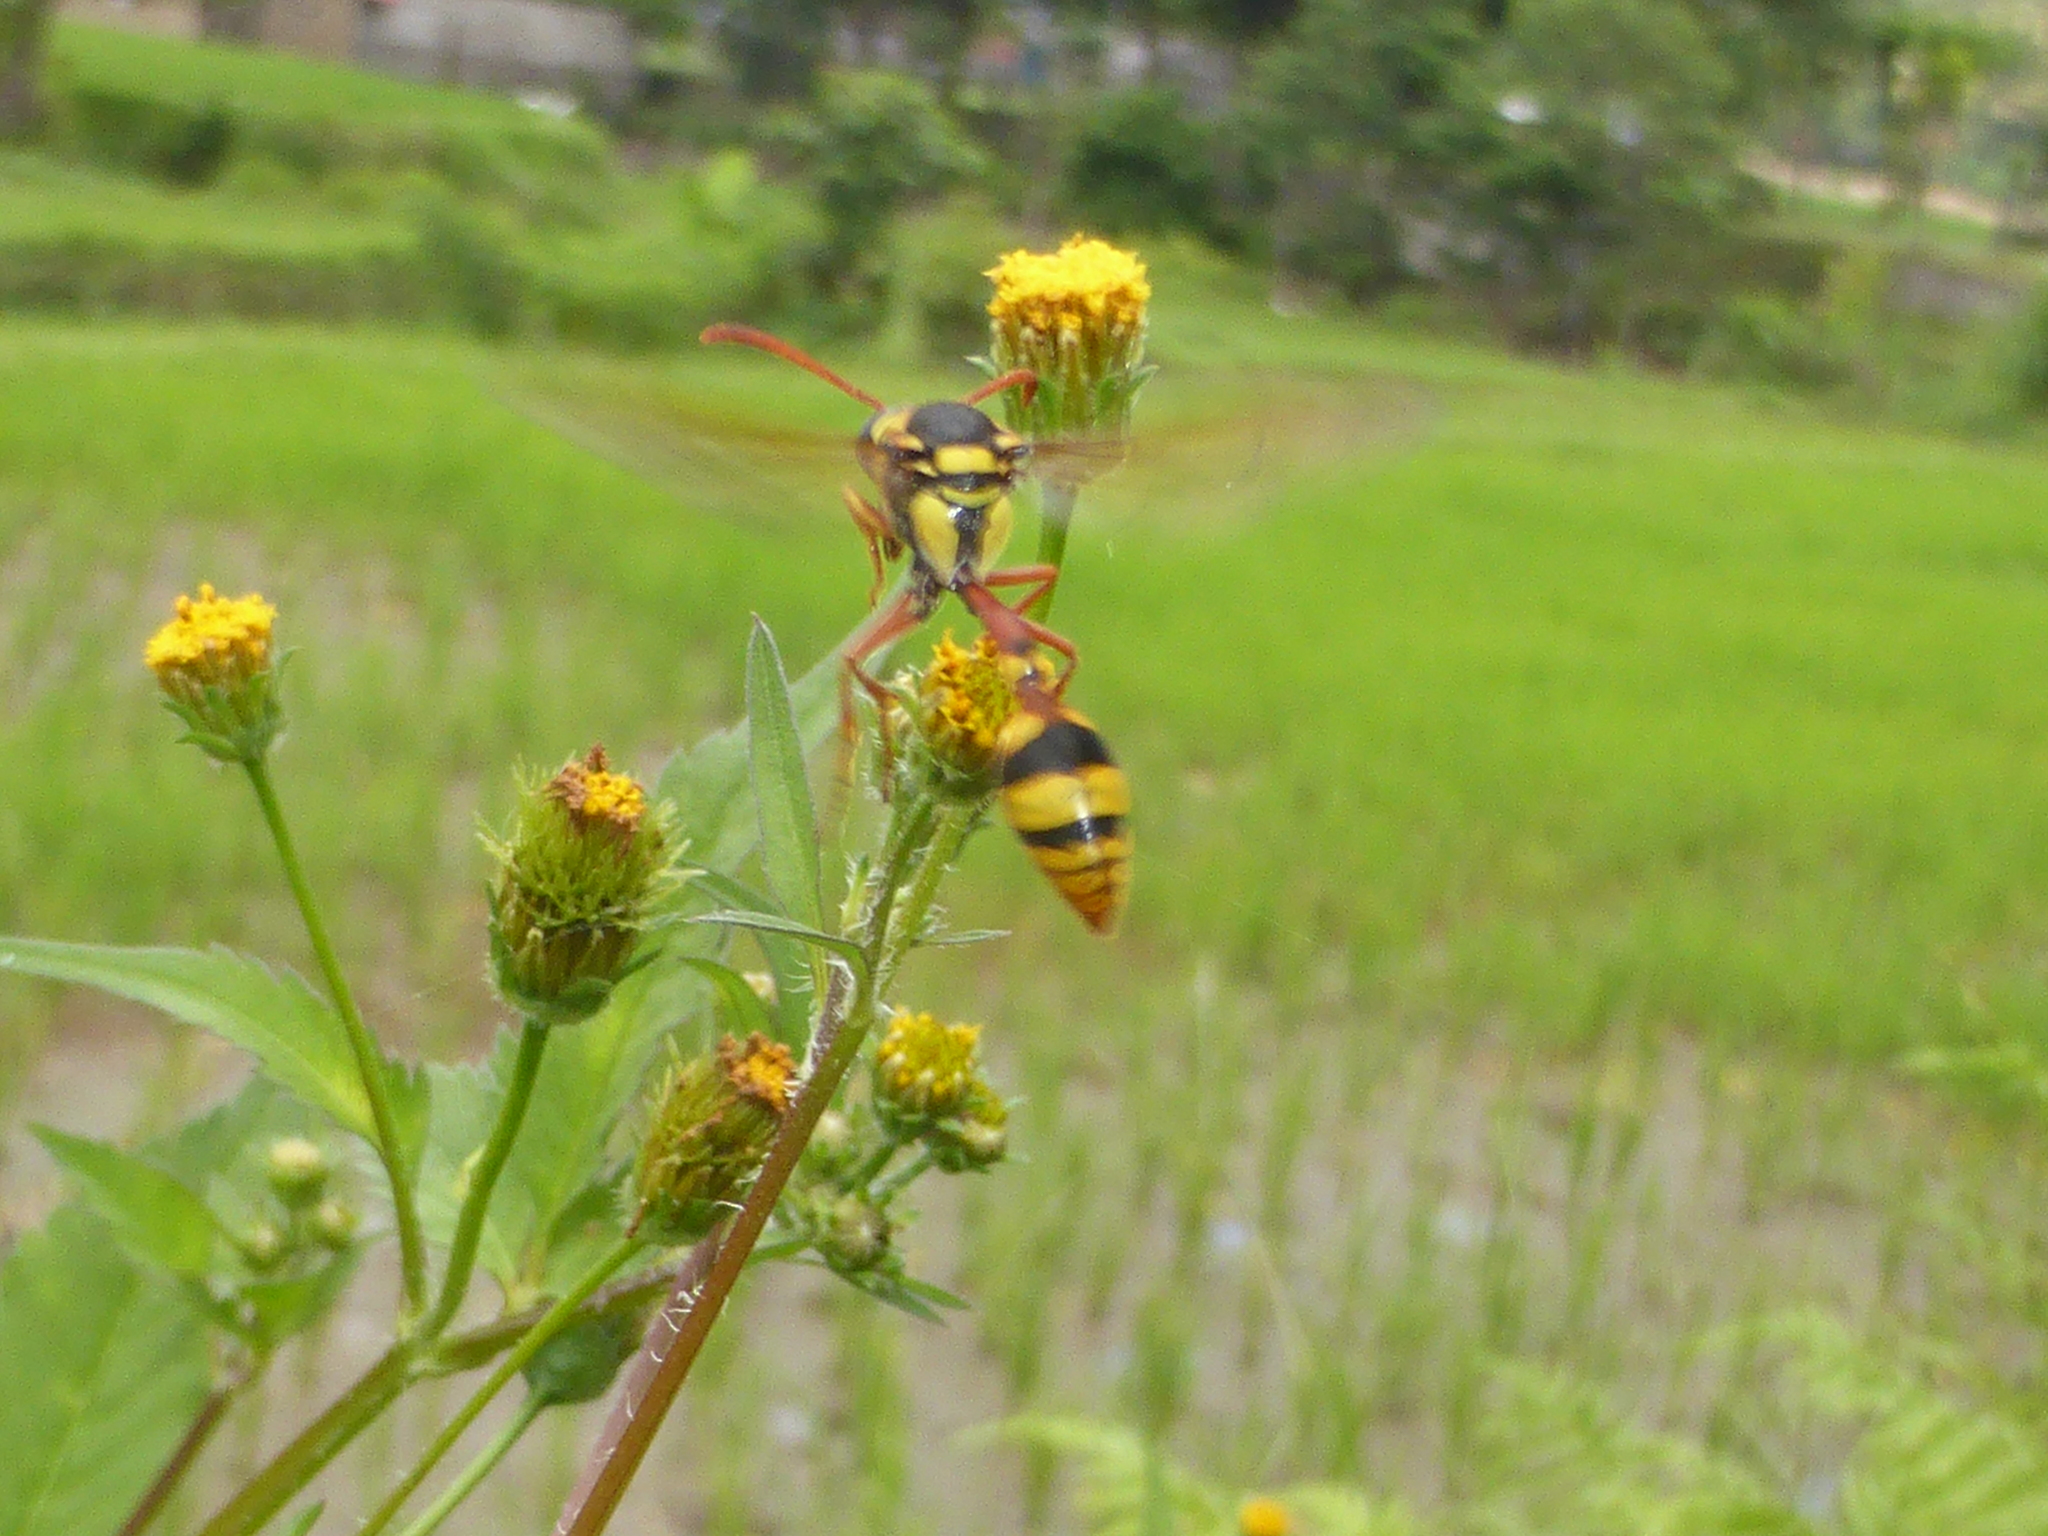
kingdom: Animalia
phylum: Arthropoda
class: Insecta
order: Hymenoptera
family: Eumenidae
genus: Delta
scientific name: Delta campaniforme
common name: Yellow and black potter wasp
